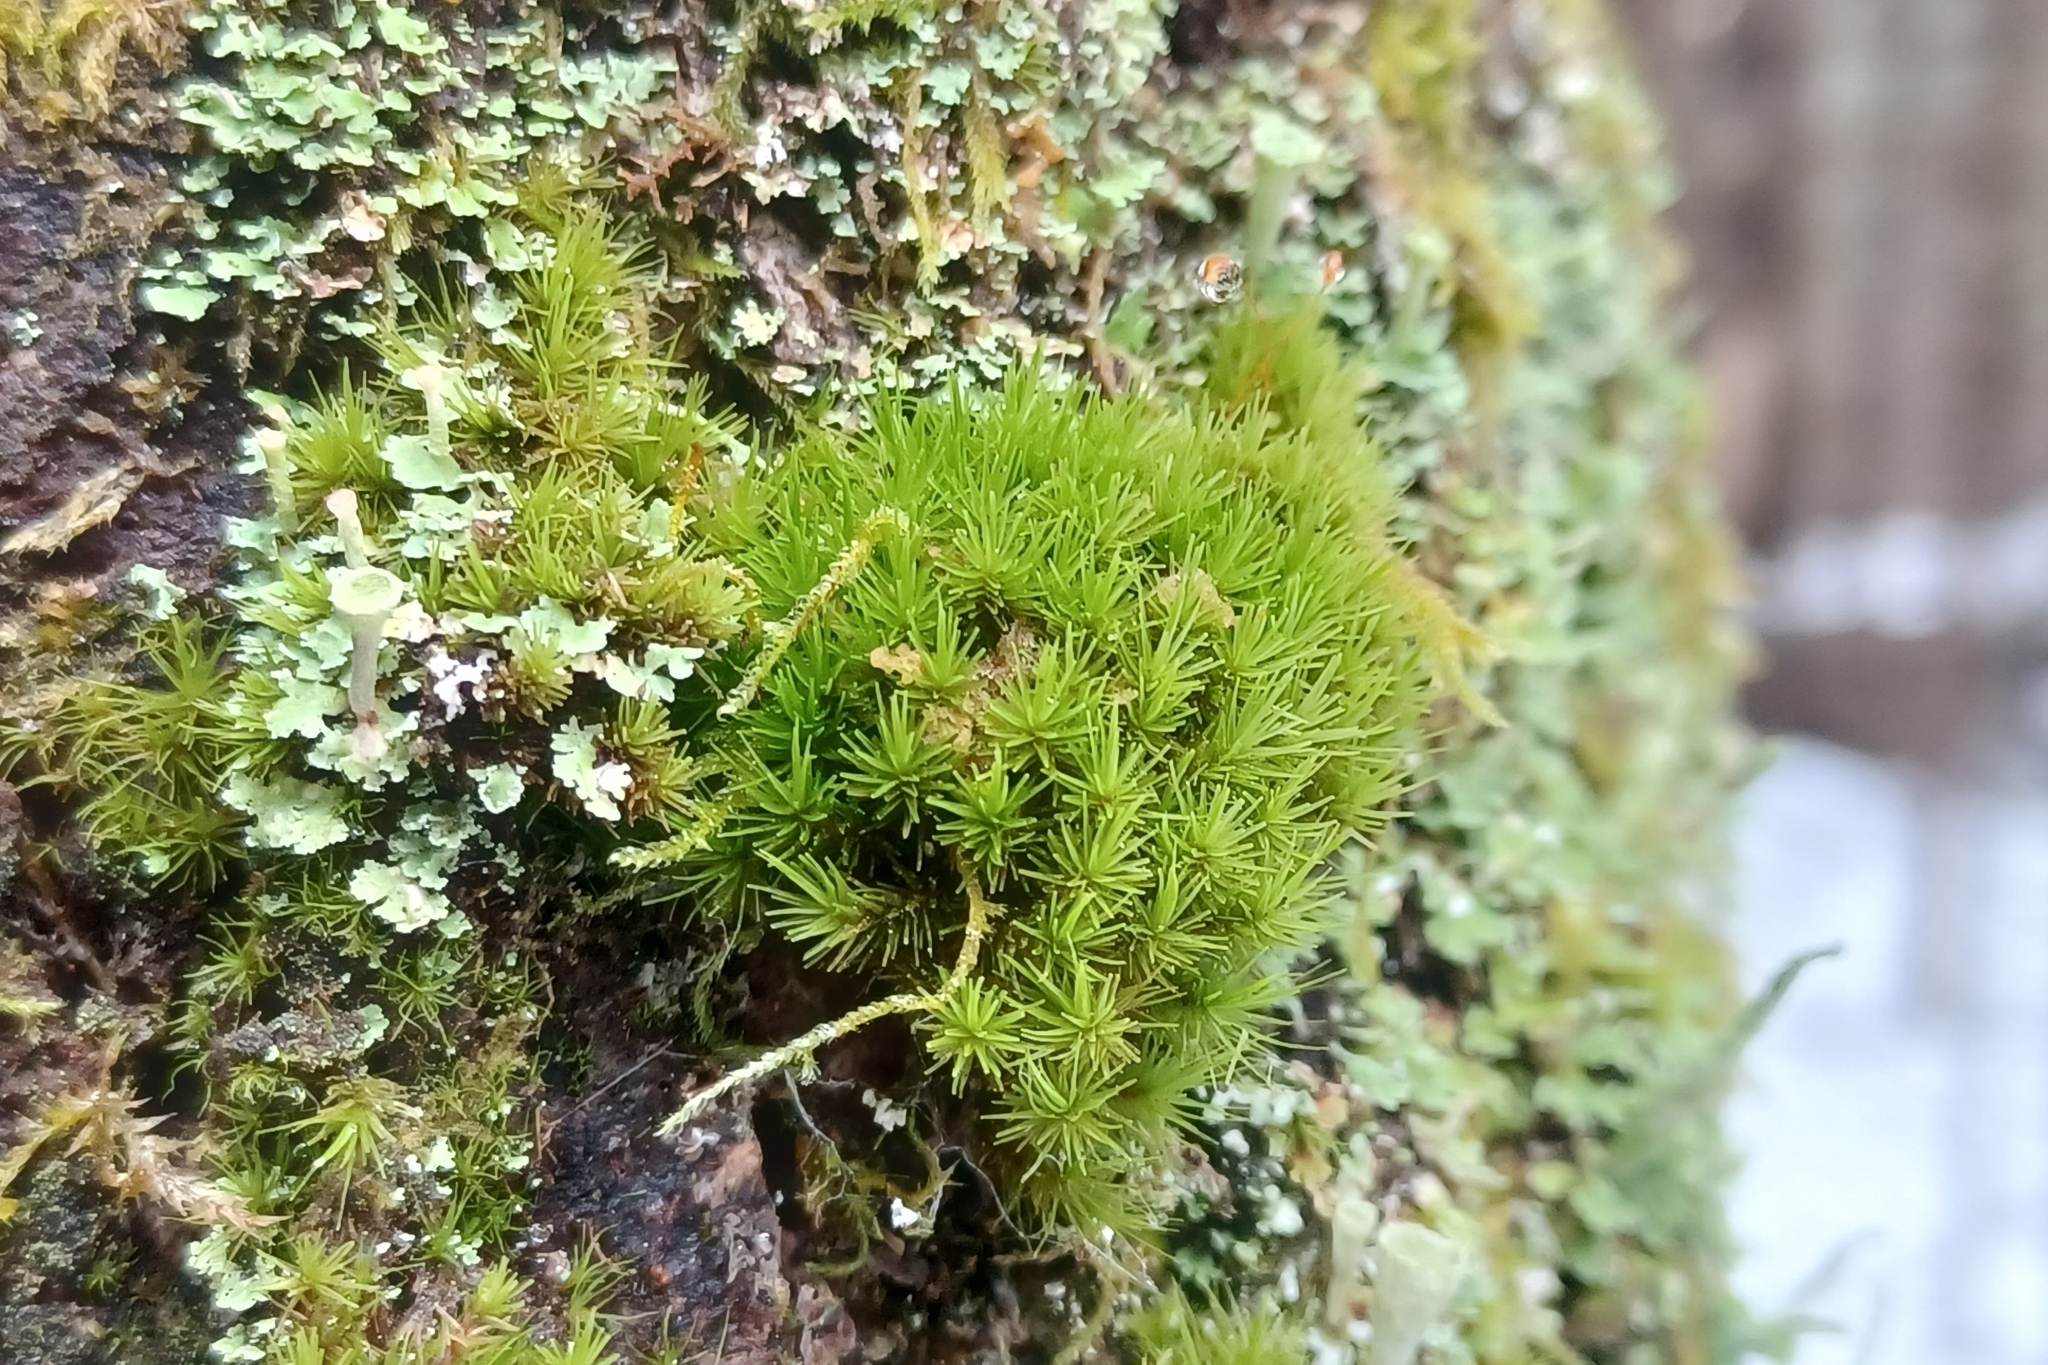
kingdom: Plantae
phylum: Bryophyta
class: Bryopsida
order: Dicranales
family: Dicranaceae
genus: Dicranum
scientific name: Dicranum viride
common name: Green broom moss
